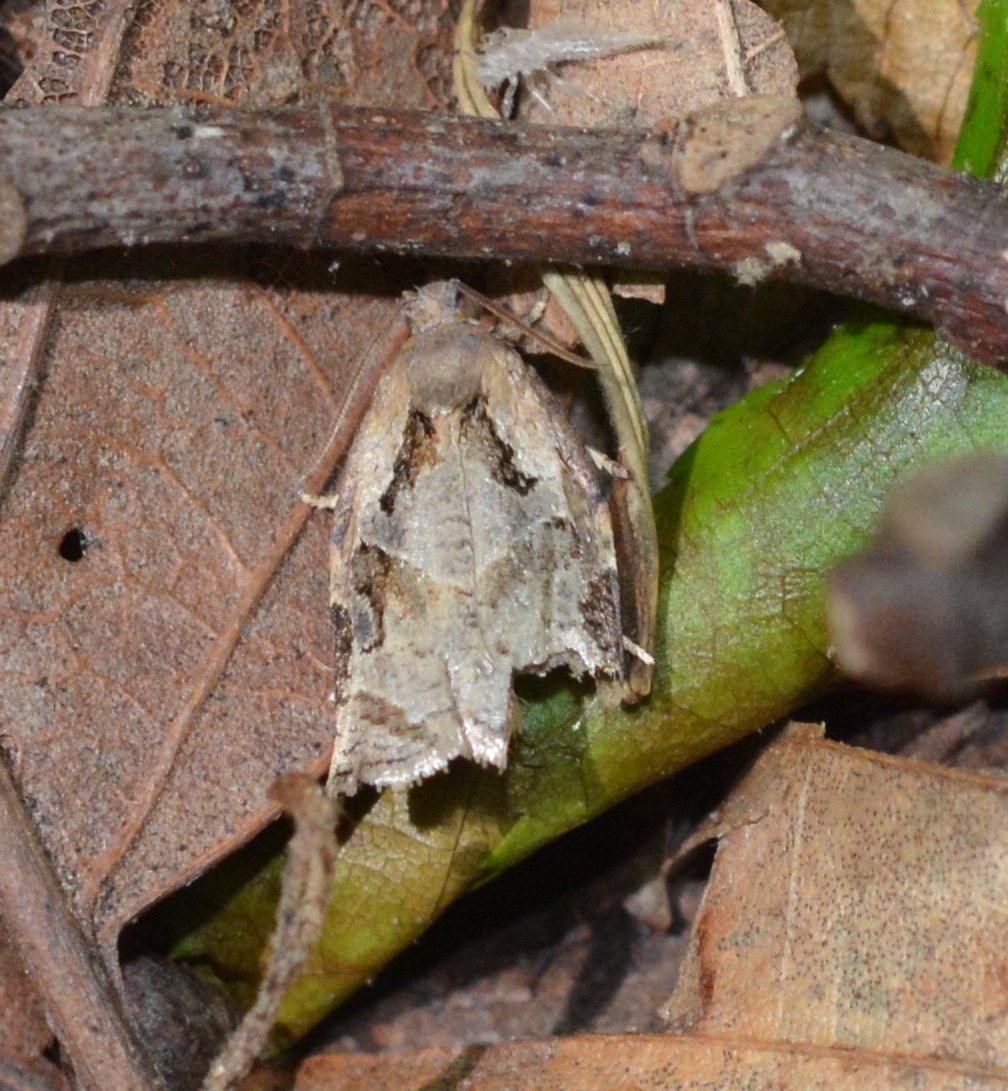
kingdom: Animalia
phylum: Arthropoda
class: Insecta
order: Lepidoptera
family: Tortricidae
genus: Archips
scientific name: Archips grisea
